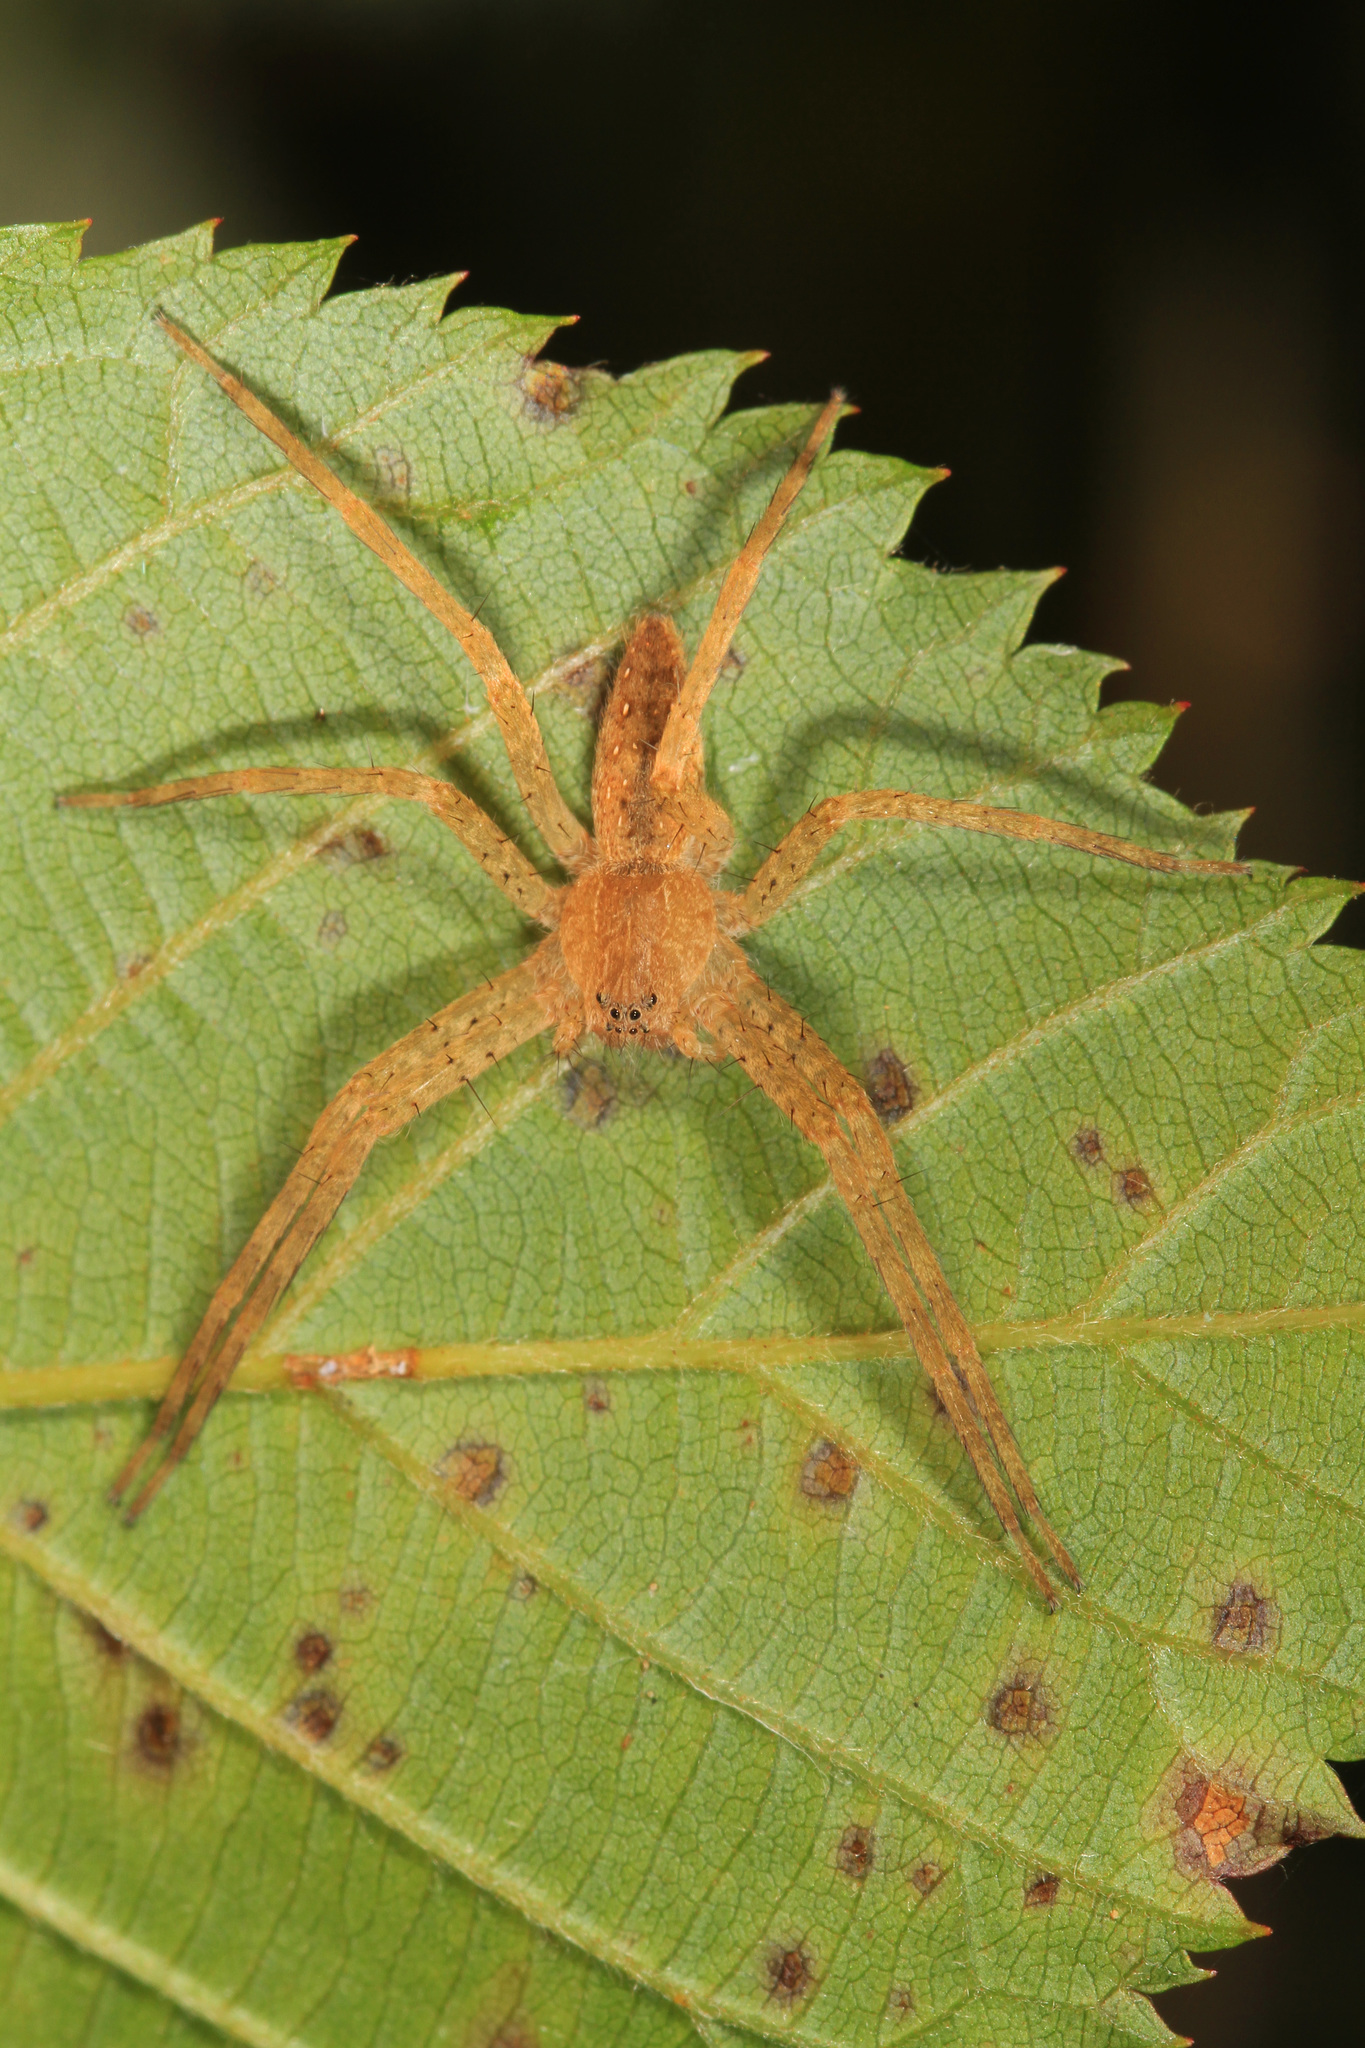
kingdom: Animalia
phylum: Arthropoda
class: Arachnida
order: Araneae
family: Pisauridae
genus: Pisaurina
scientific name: Pisaurina mira
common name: American nursery web spider
